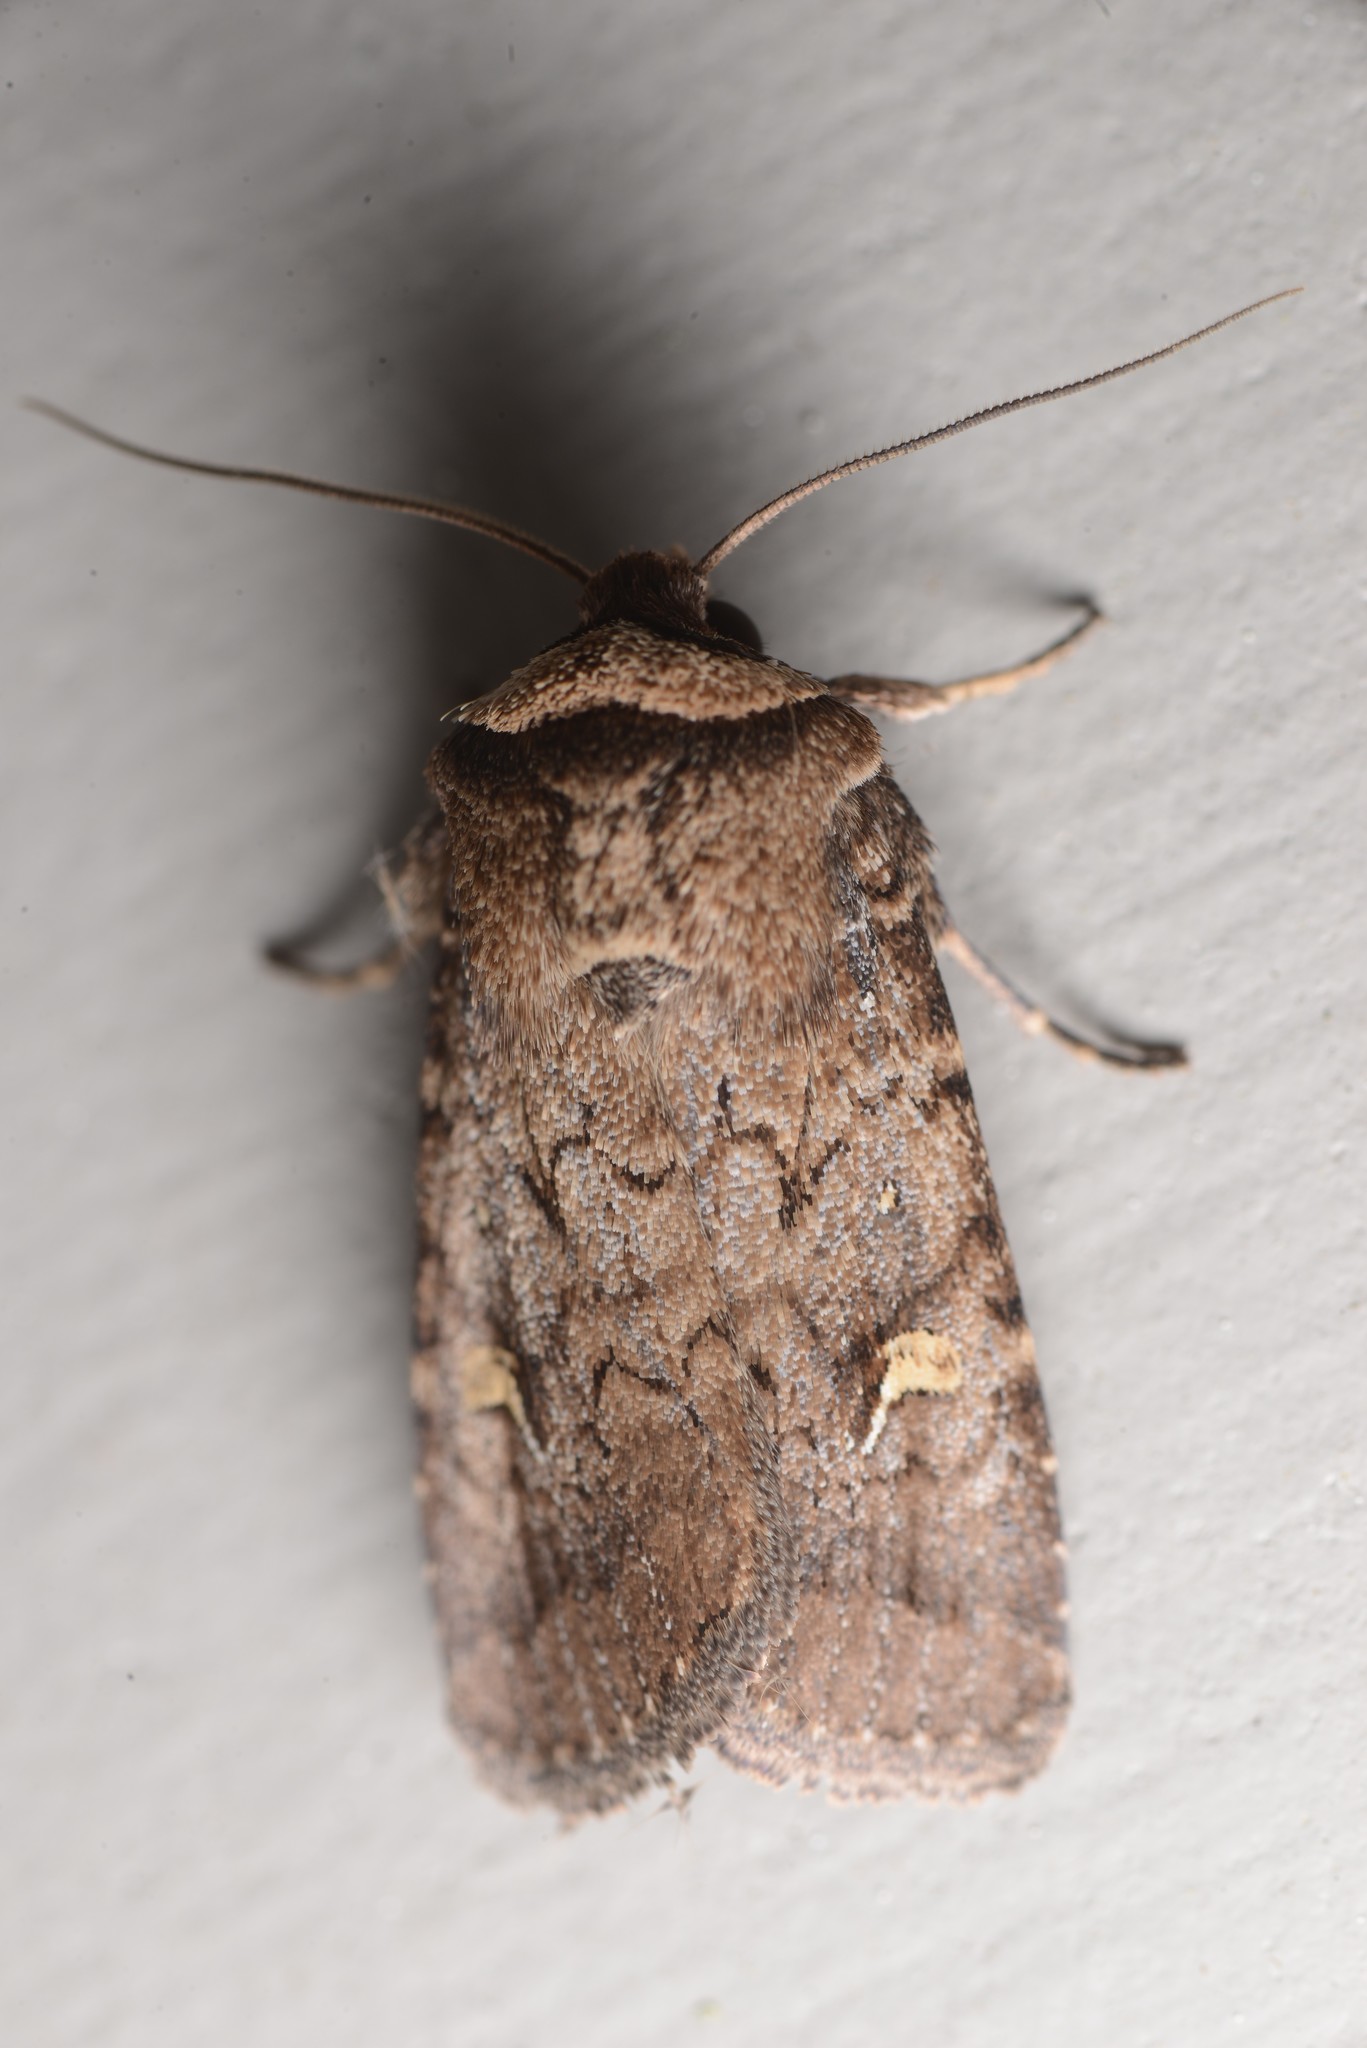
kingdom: Animalia
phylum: Arthropoda
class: Insecta
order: Lepidoptera
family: Noctuidae
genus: Proteuxoa
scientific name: Proteuxoa tetronycha
